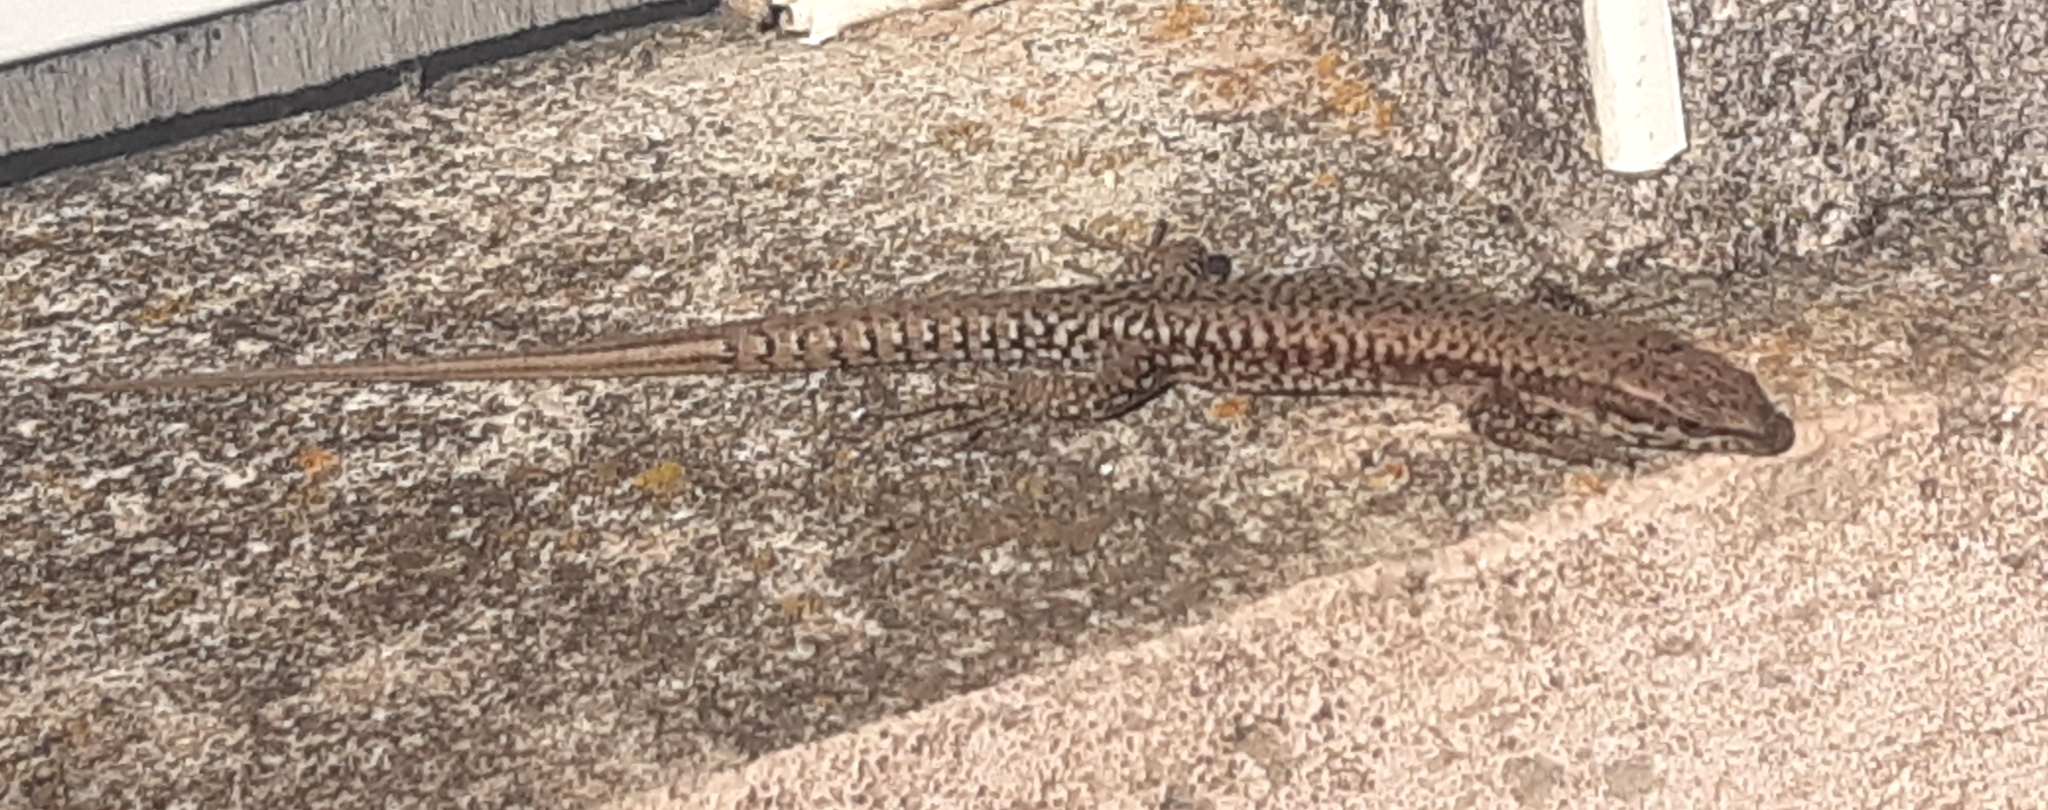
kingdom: Animalia
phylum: Chordata
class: Squamata
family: Lacertidae
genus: Podarcis
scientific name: Podarcis muralis
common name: Common wall lizard
